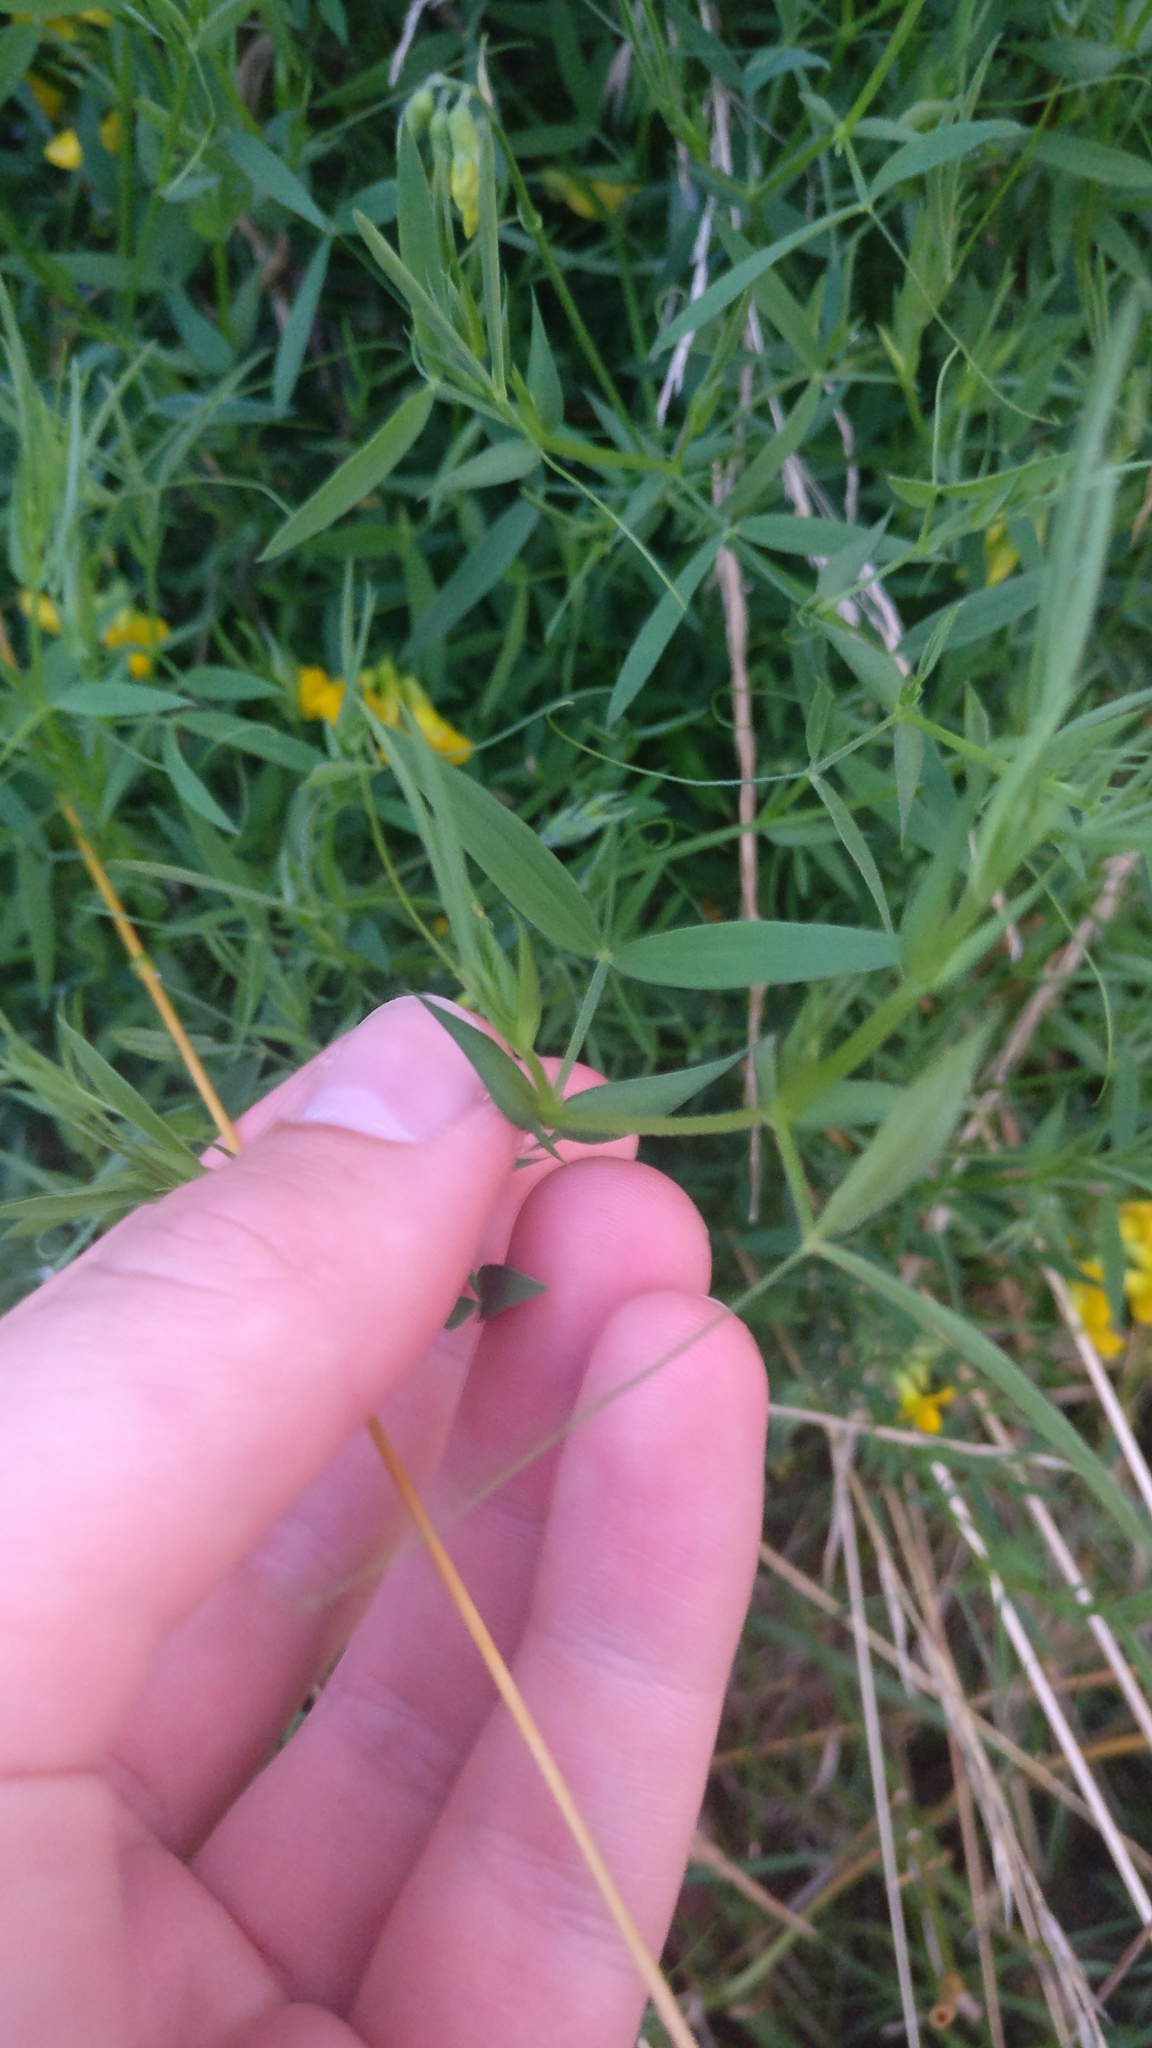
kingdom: Plantae
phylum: Tracheophyta
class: Magnoliopsida
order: Fabales
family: Fabaceae
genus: Lathyrus
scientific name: Lathyrus pratensis
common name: Meadow vetchling
